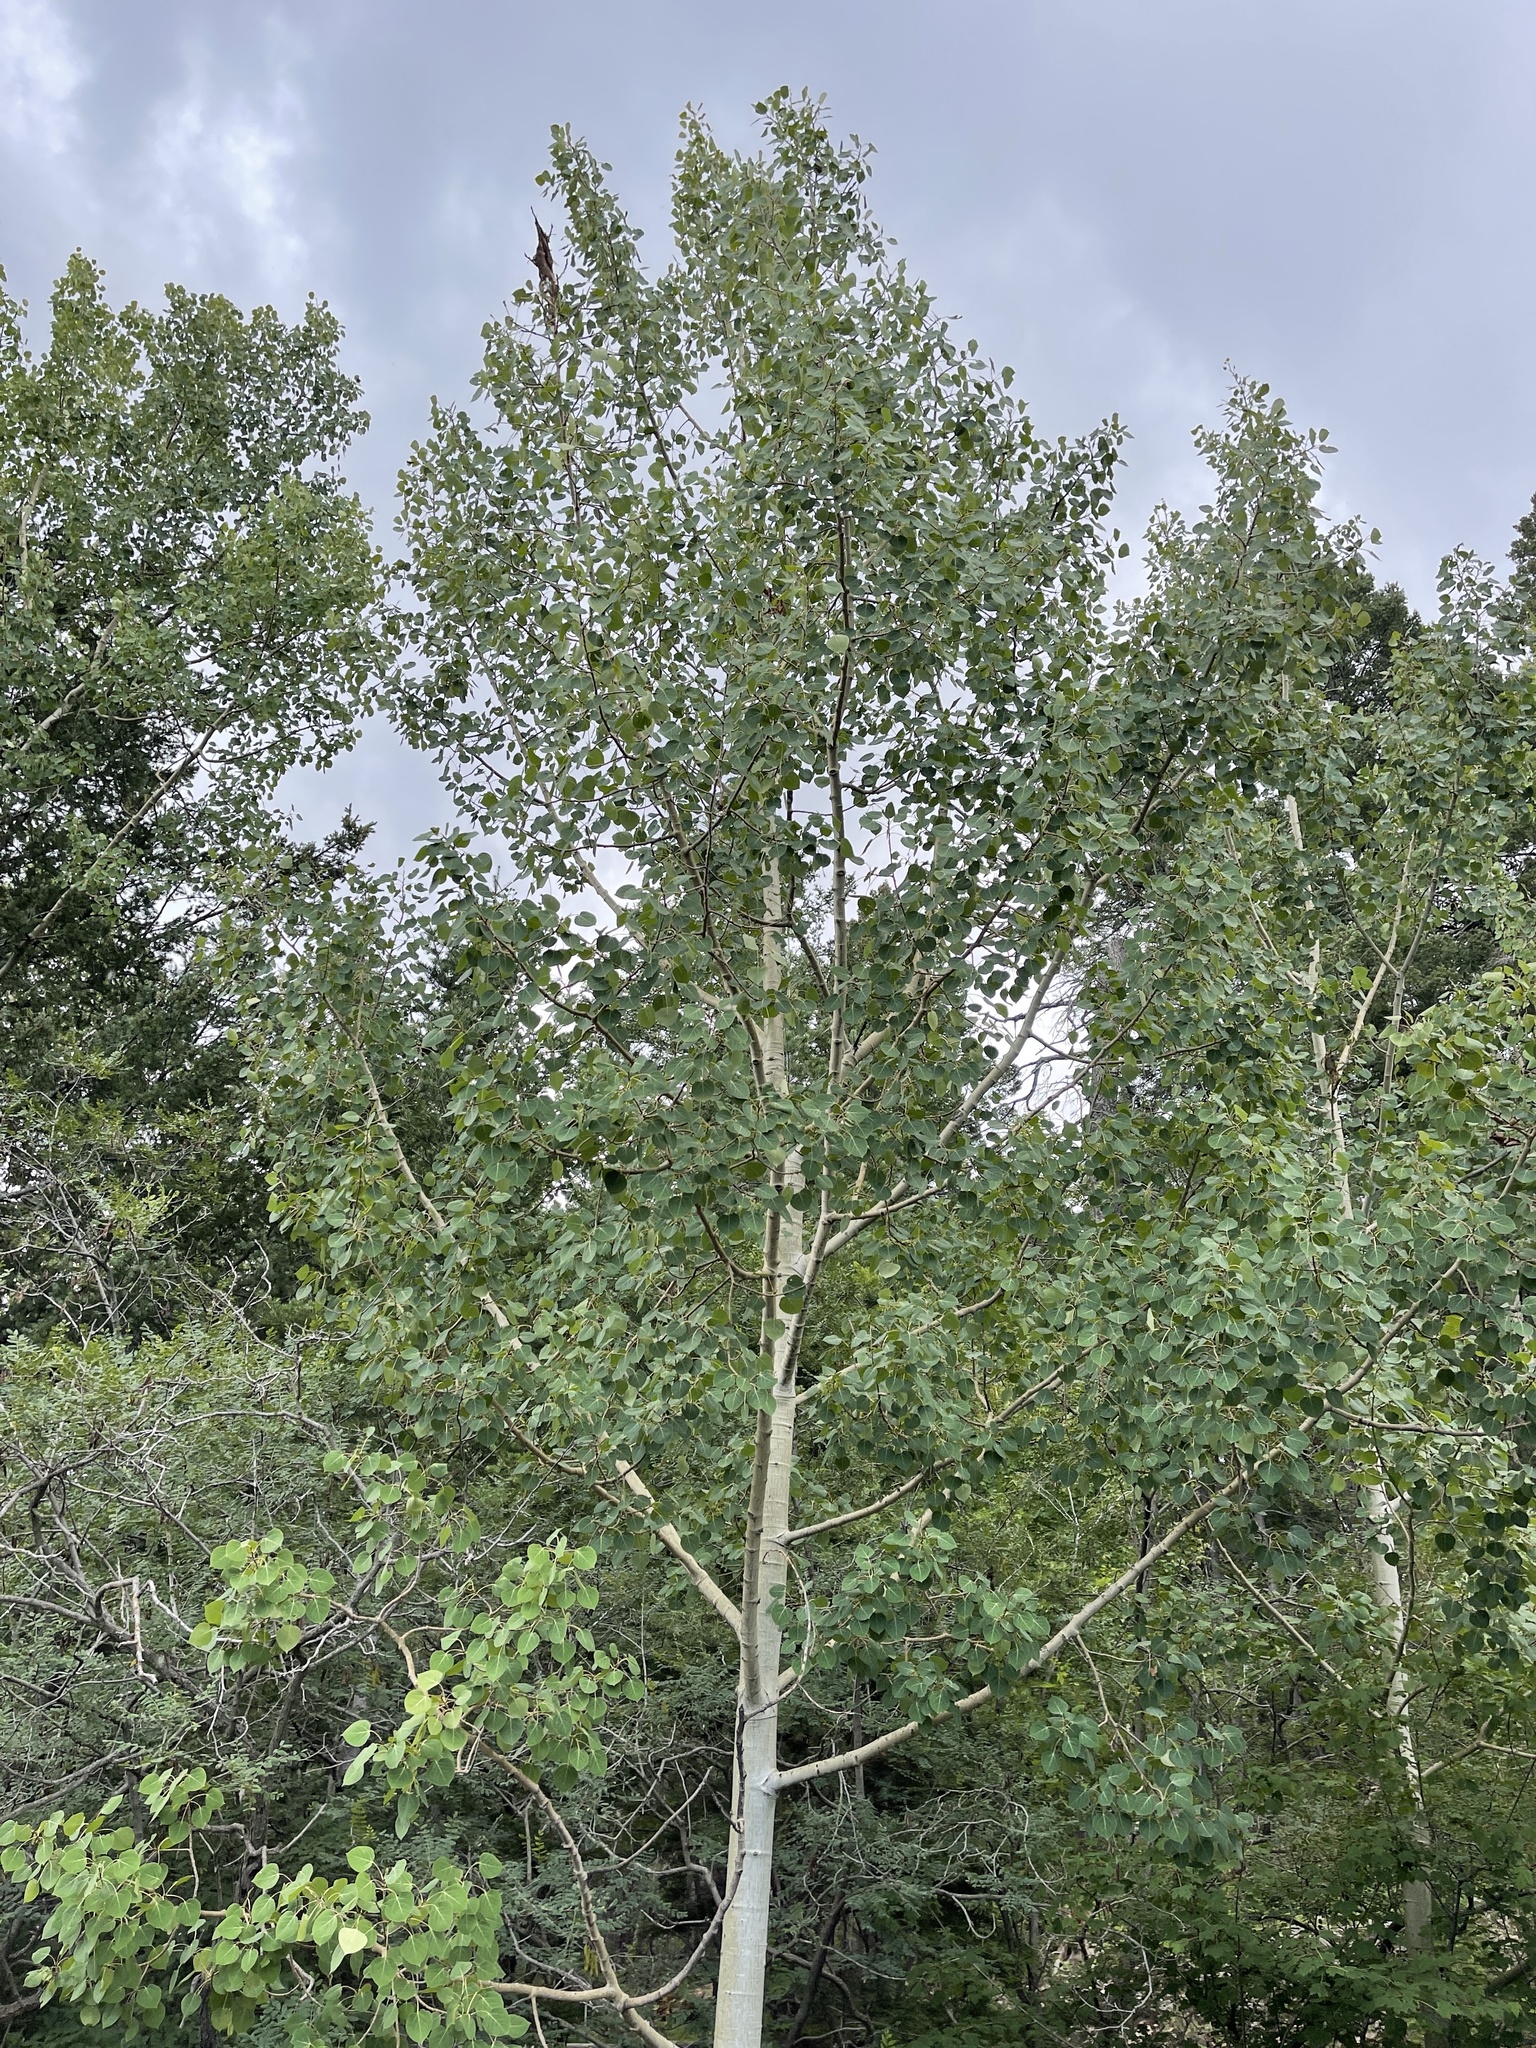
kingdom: Plantae
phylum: Tracheophyta
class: Magnoliopsida
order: Malpighiales
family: Salicaceae
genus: Populus
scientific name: Populus tremuloides
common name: Quaking aspen
